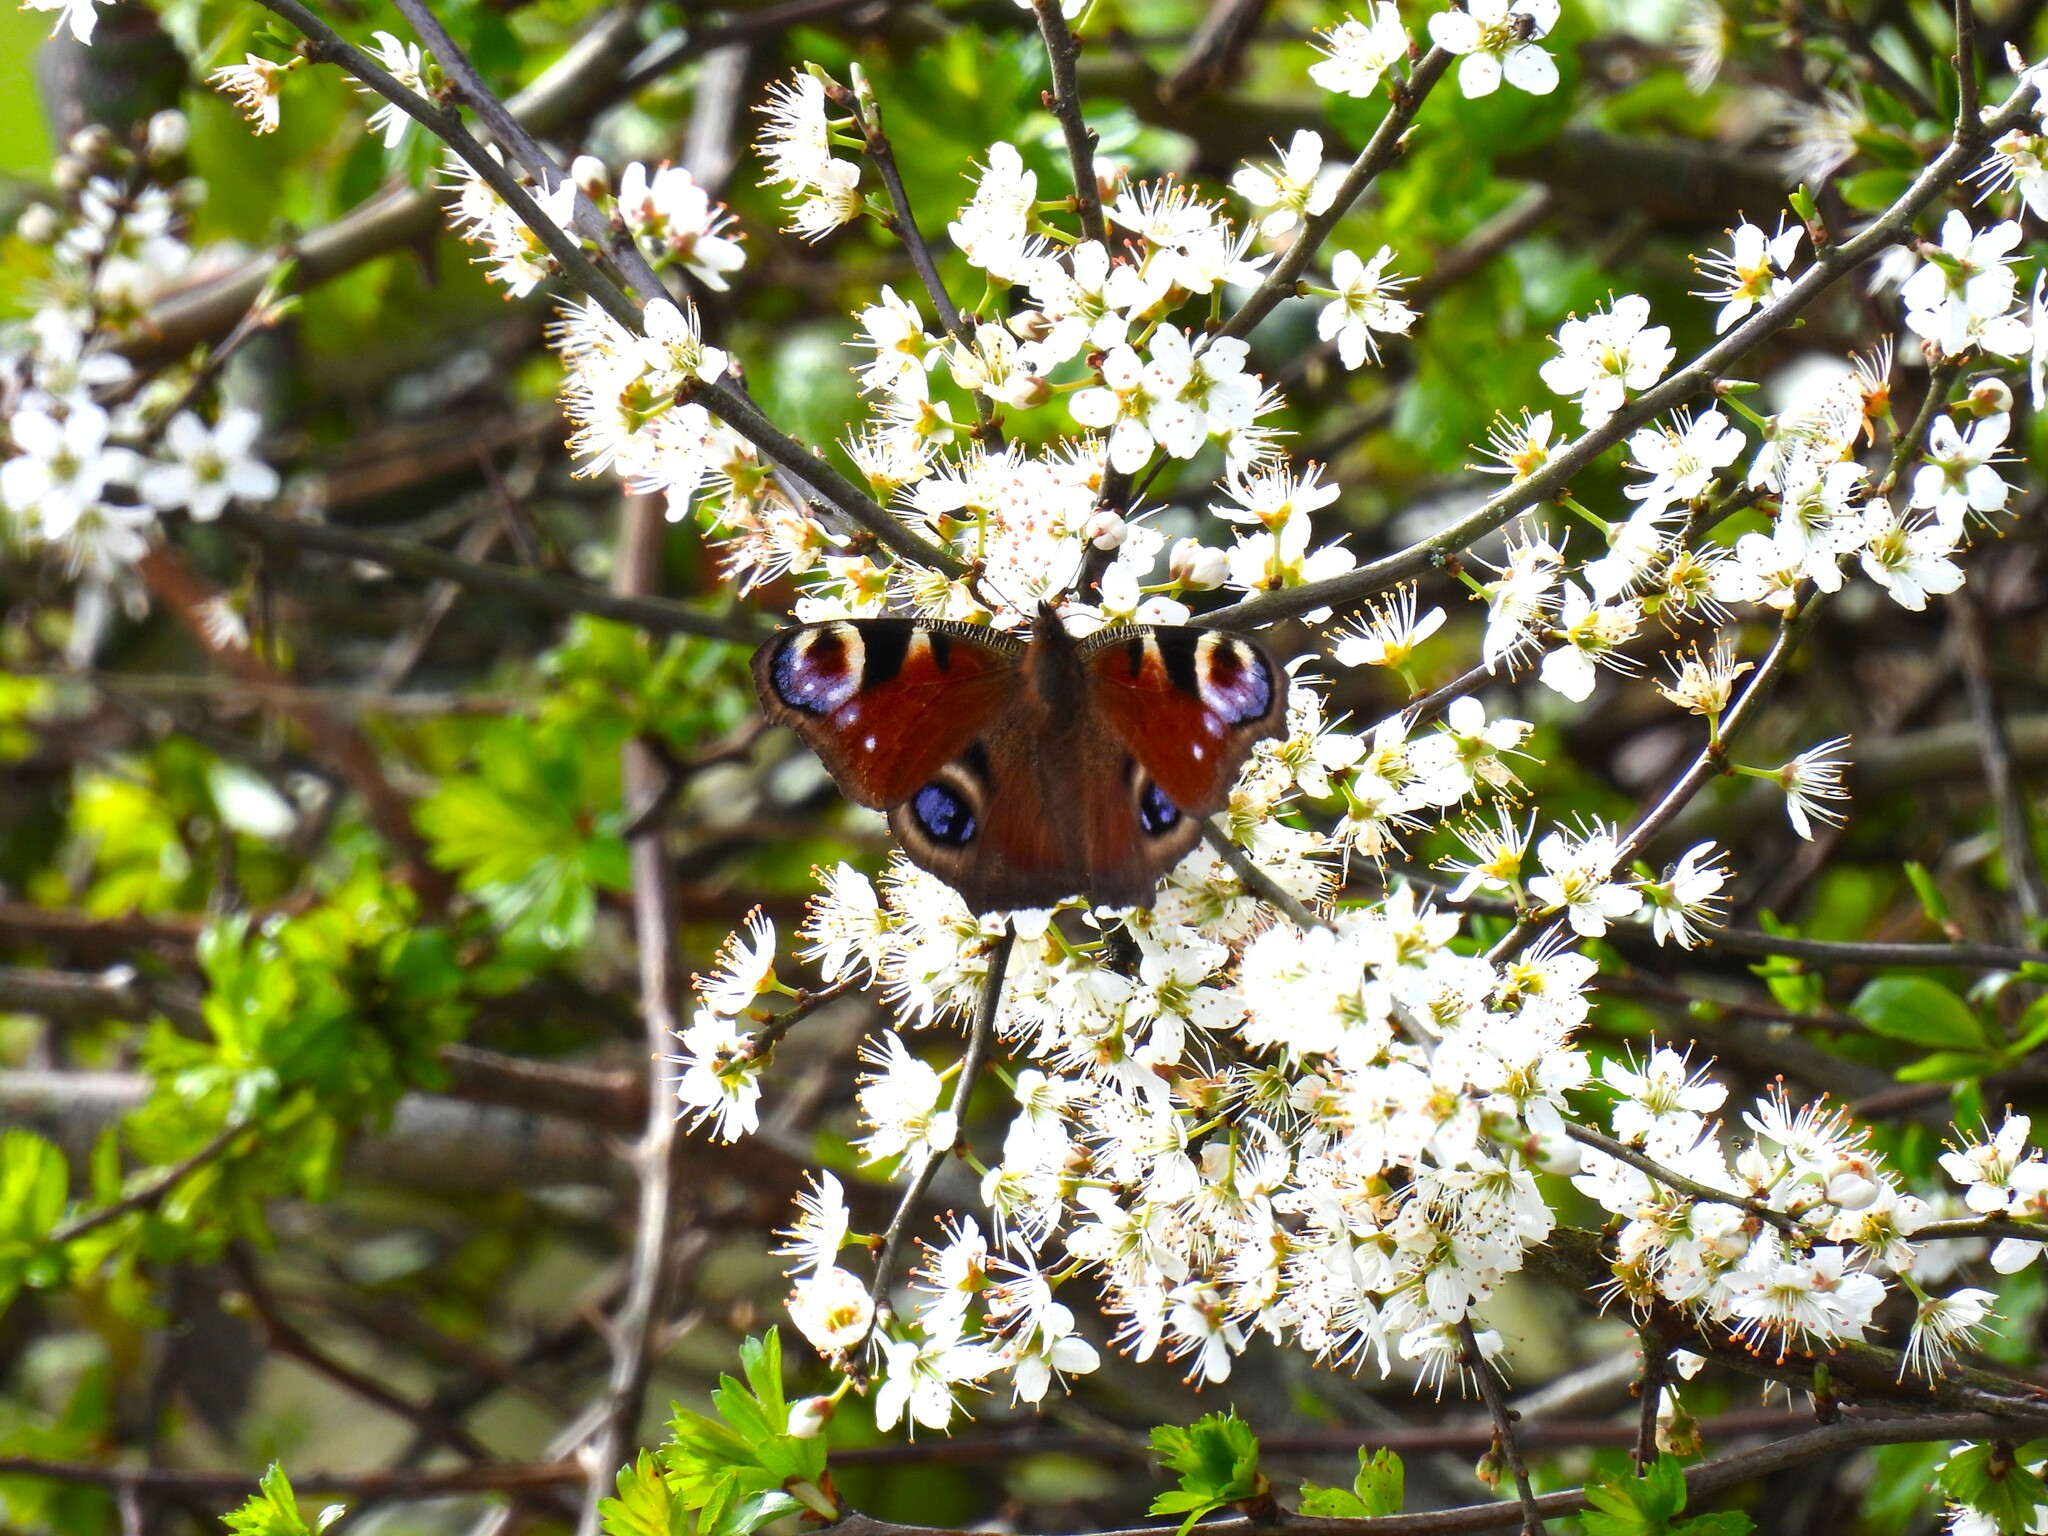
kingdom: Animalia
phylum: Arthropoda
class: Insecta
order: Lepidoptera
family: Nymphalidae
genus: Aglais
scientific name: Aglais io
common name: Peacock
